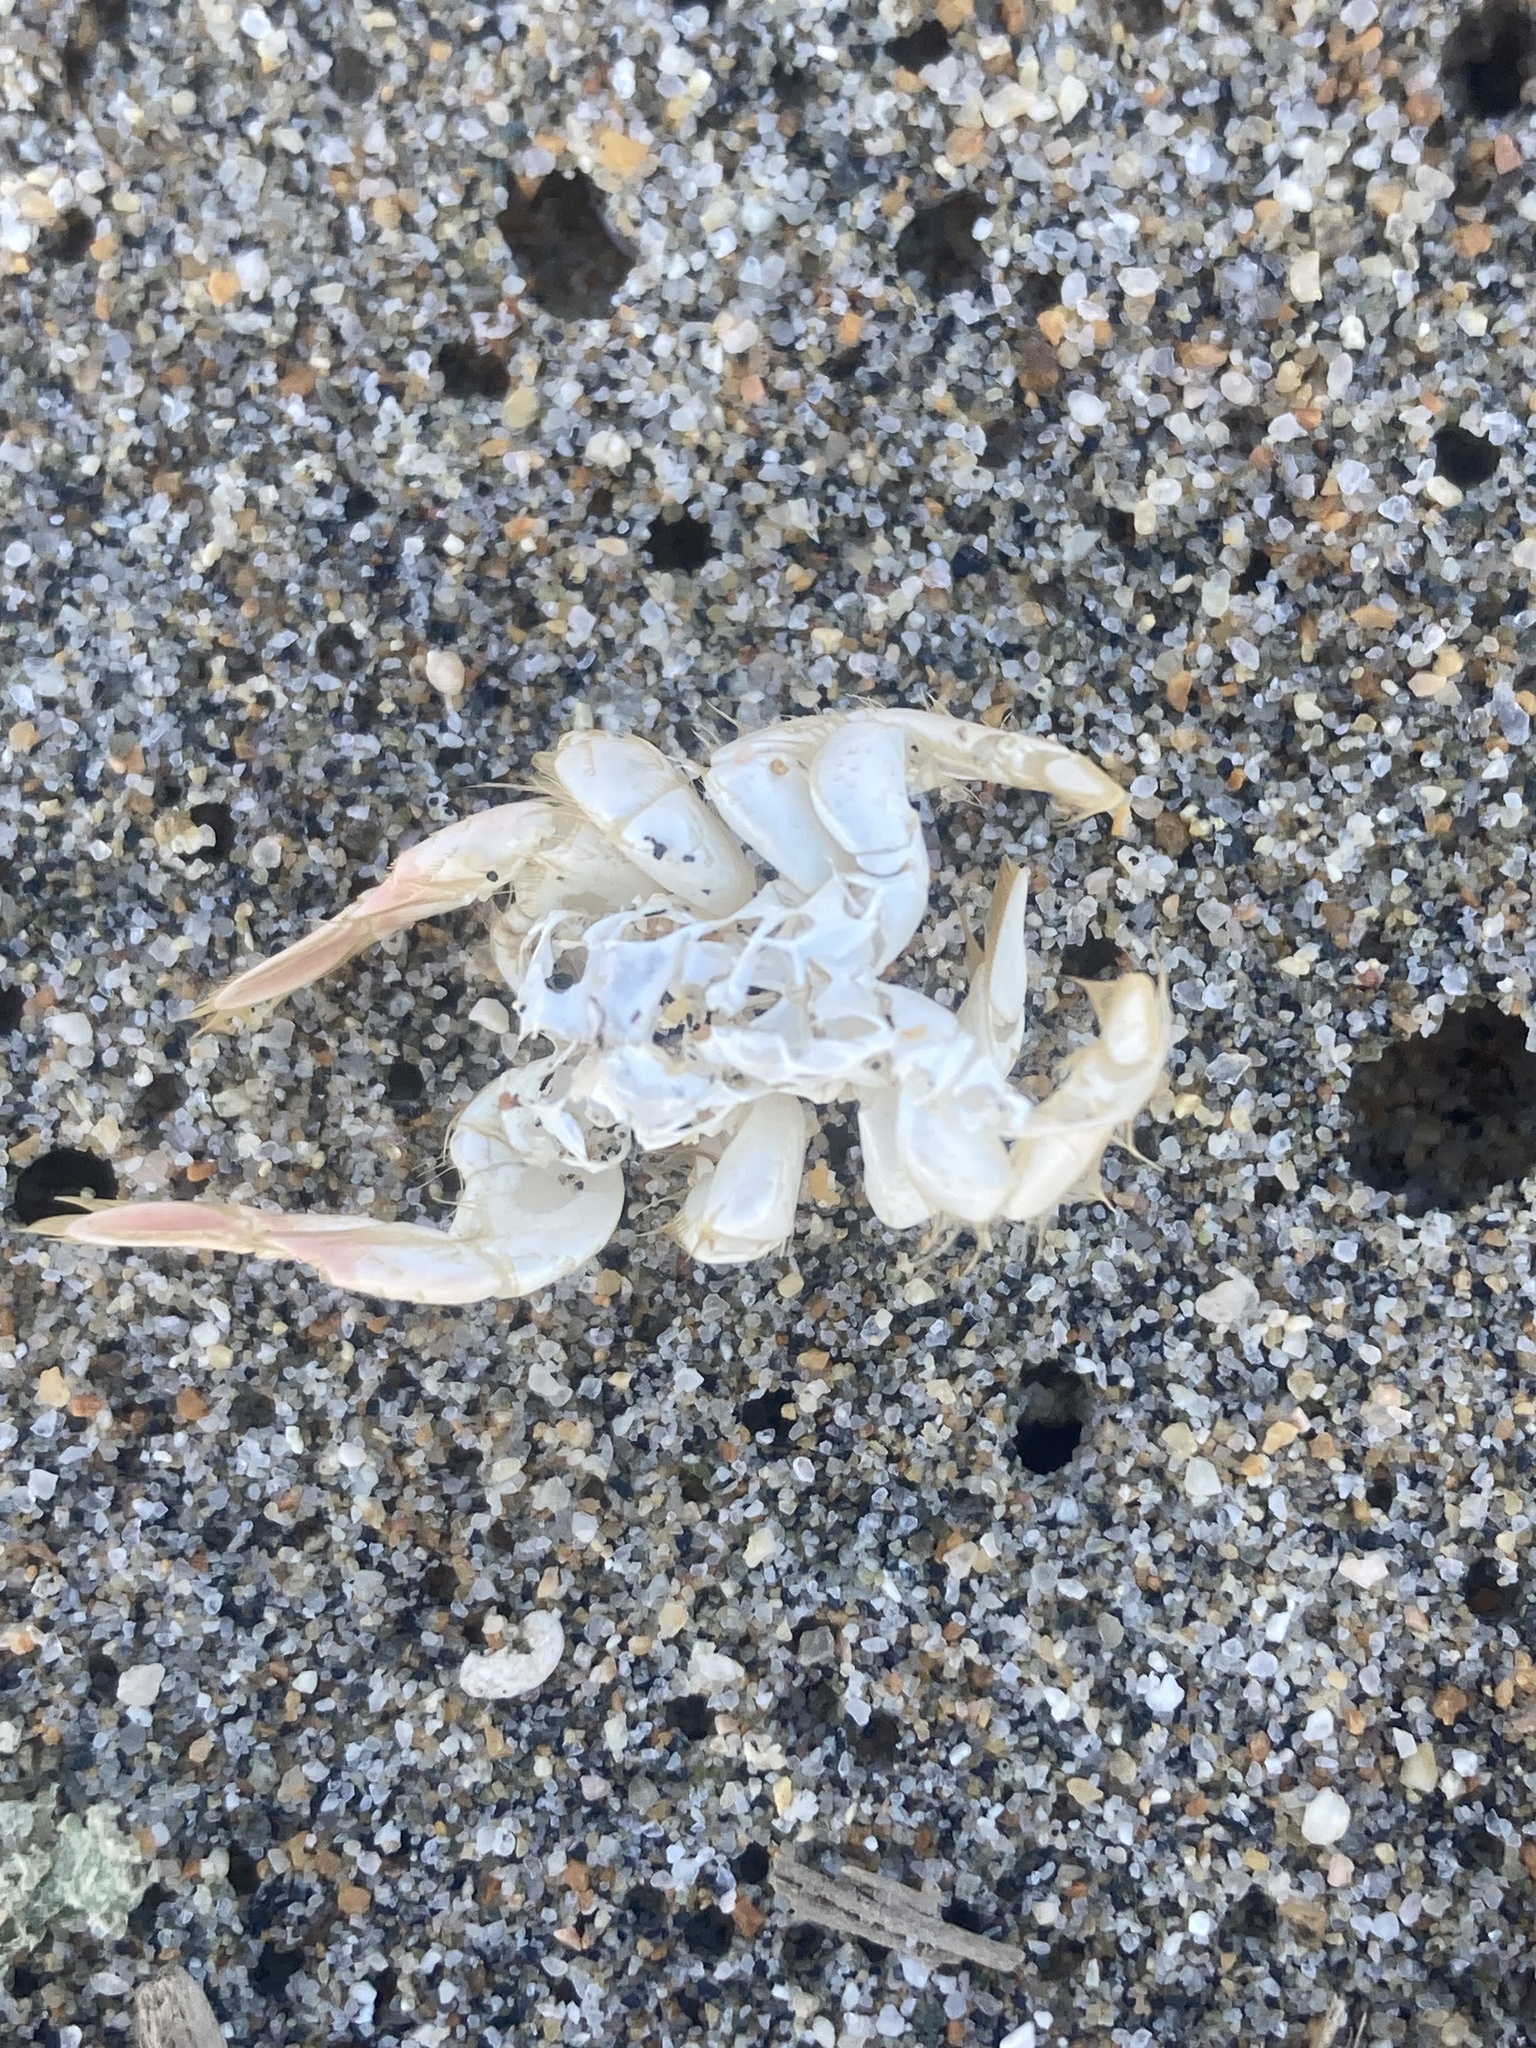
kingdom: Animalia
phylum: Arthropoda
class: Malacostraca
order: Decapoda
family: Hippidae
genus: Emerita
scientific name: Emerita analoga
